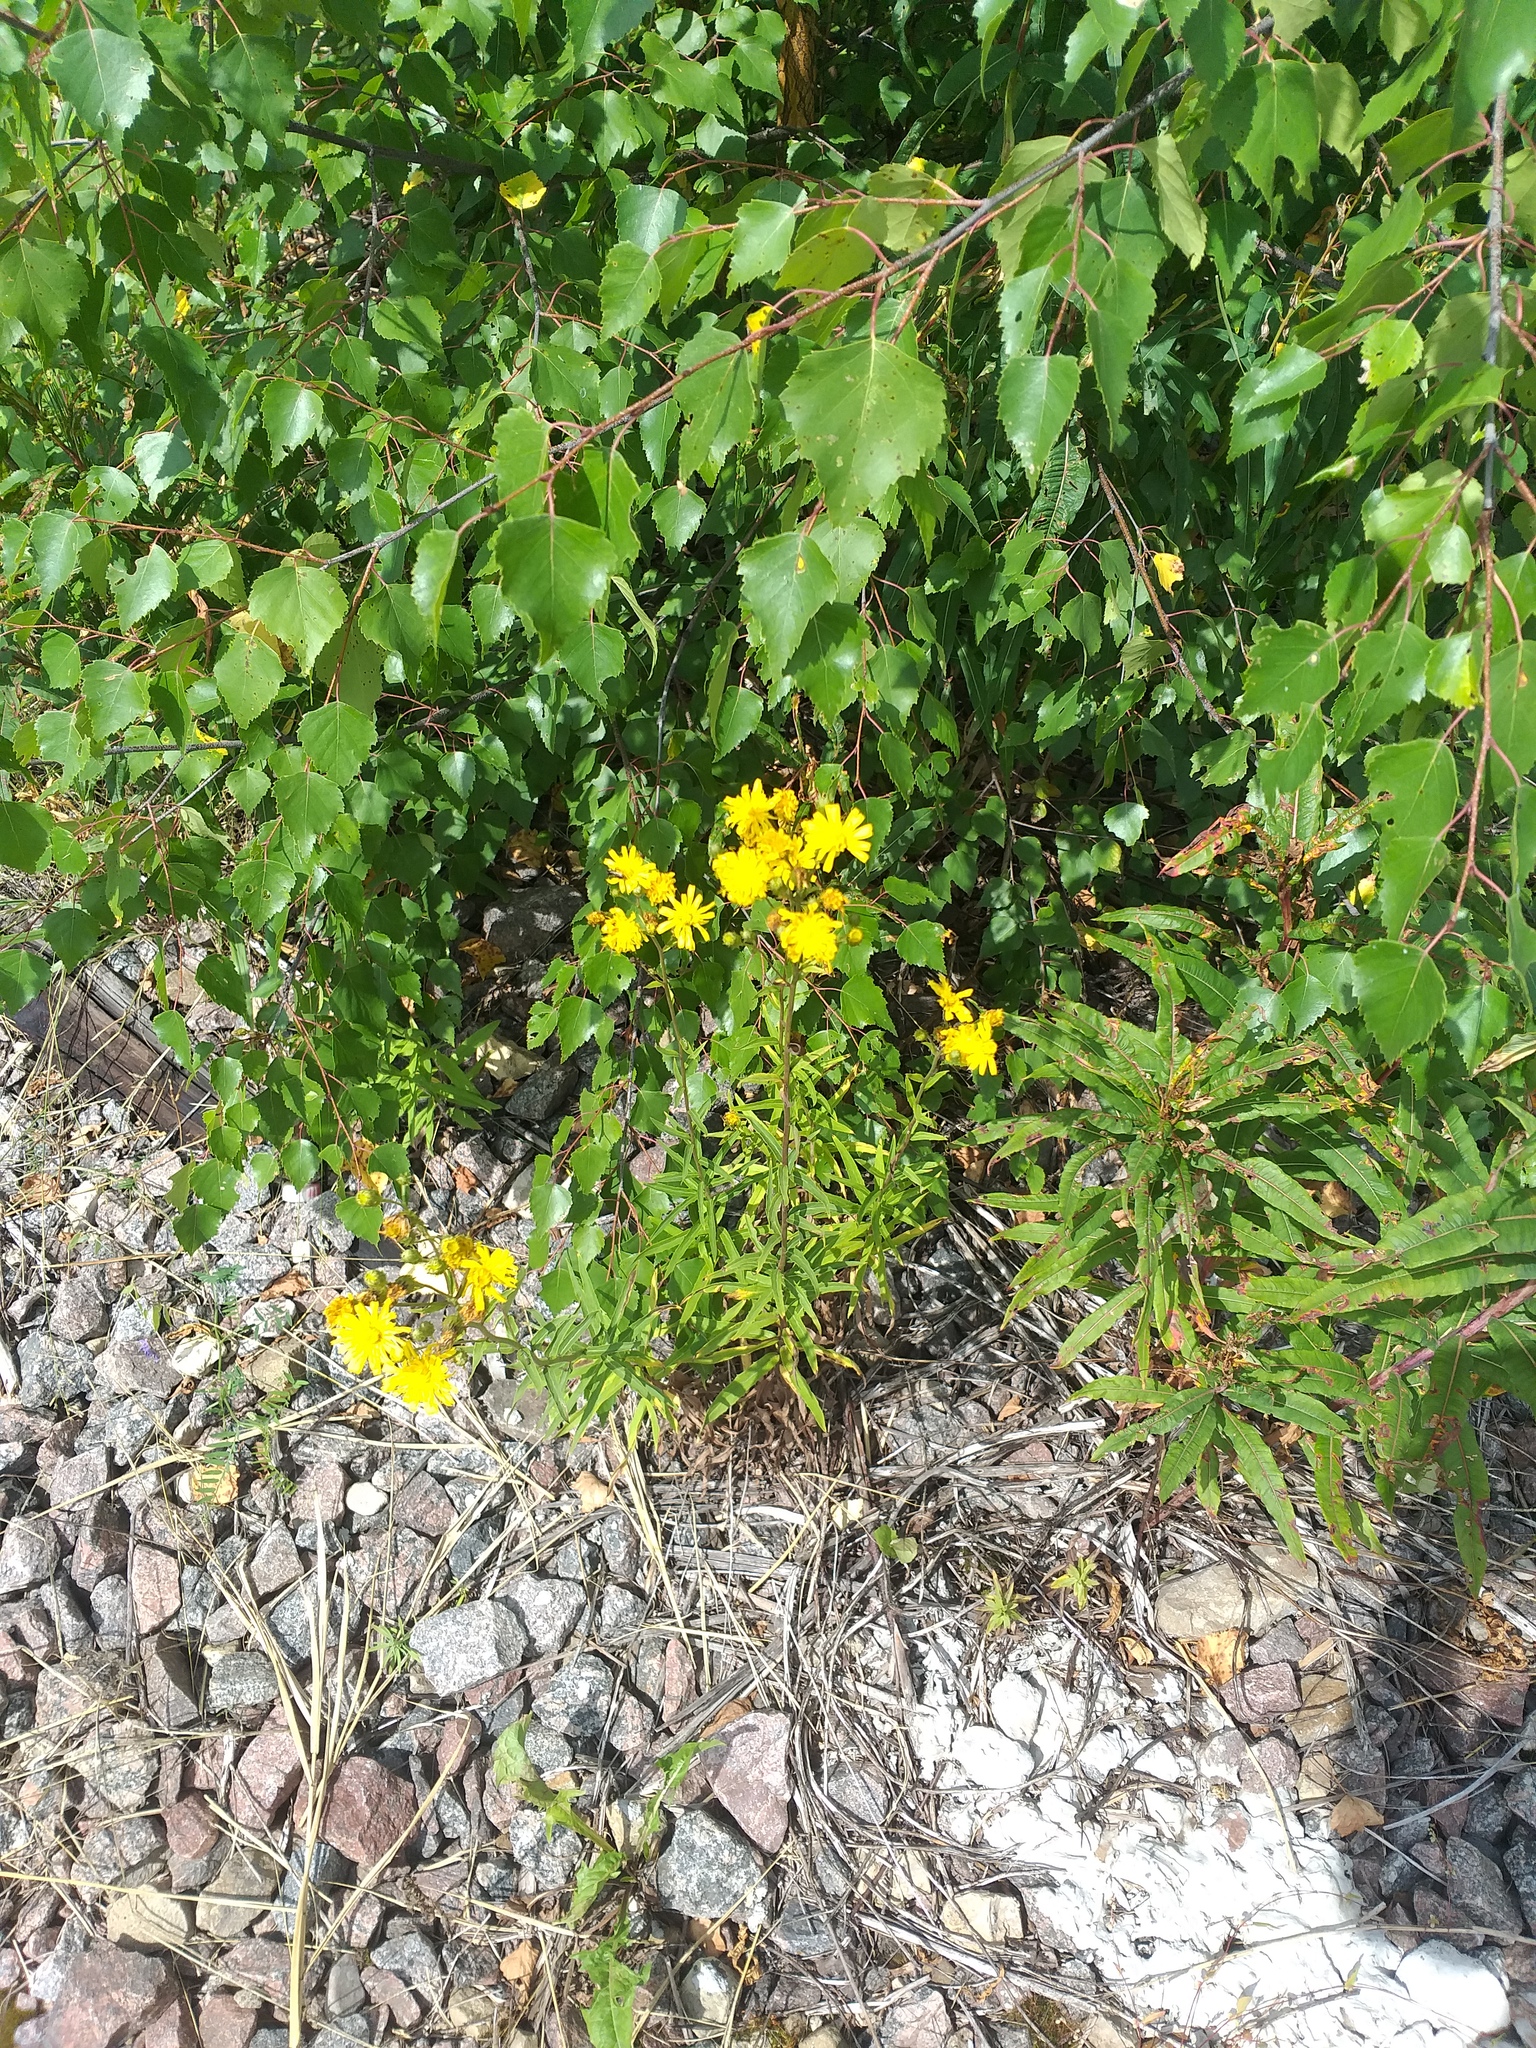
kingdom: Plantae
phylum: Tracheophyta
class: Magnoliopsida
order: Asterales
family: Asteraceae
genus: Hieracium
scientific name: Hieracium umbellatum
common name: Northern hawkweed
